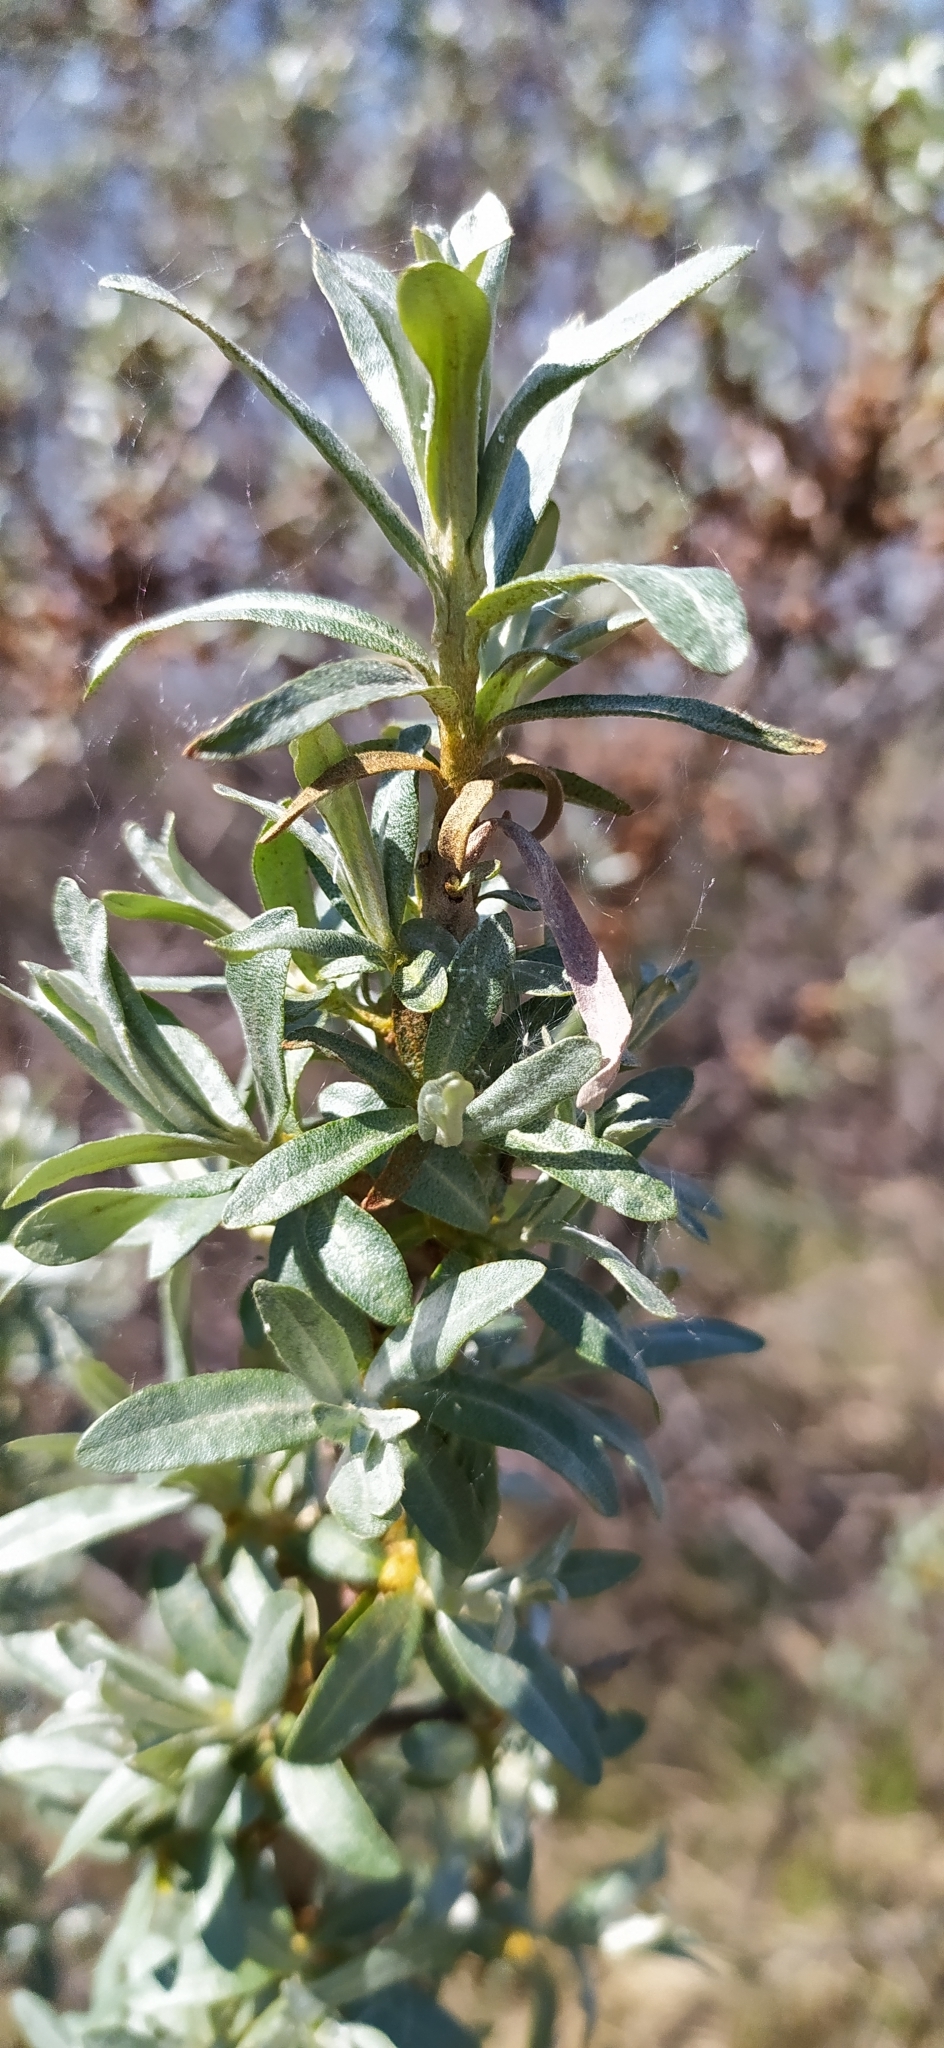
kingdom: Plantae
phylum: Tracheophyta
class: Magnoliopsida
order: Rosales
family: Elaeagnaceae
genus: Hippophae
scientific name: Hippophae rhamnoides
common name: Sea-buckthorn
